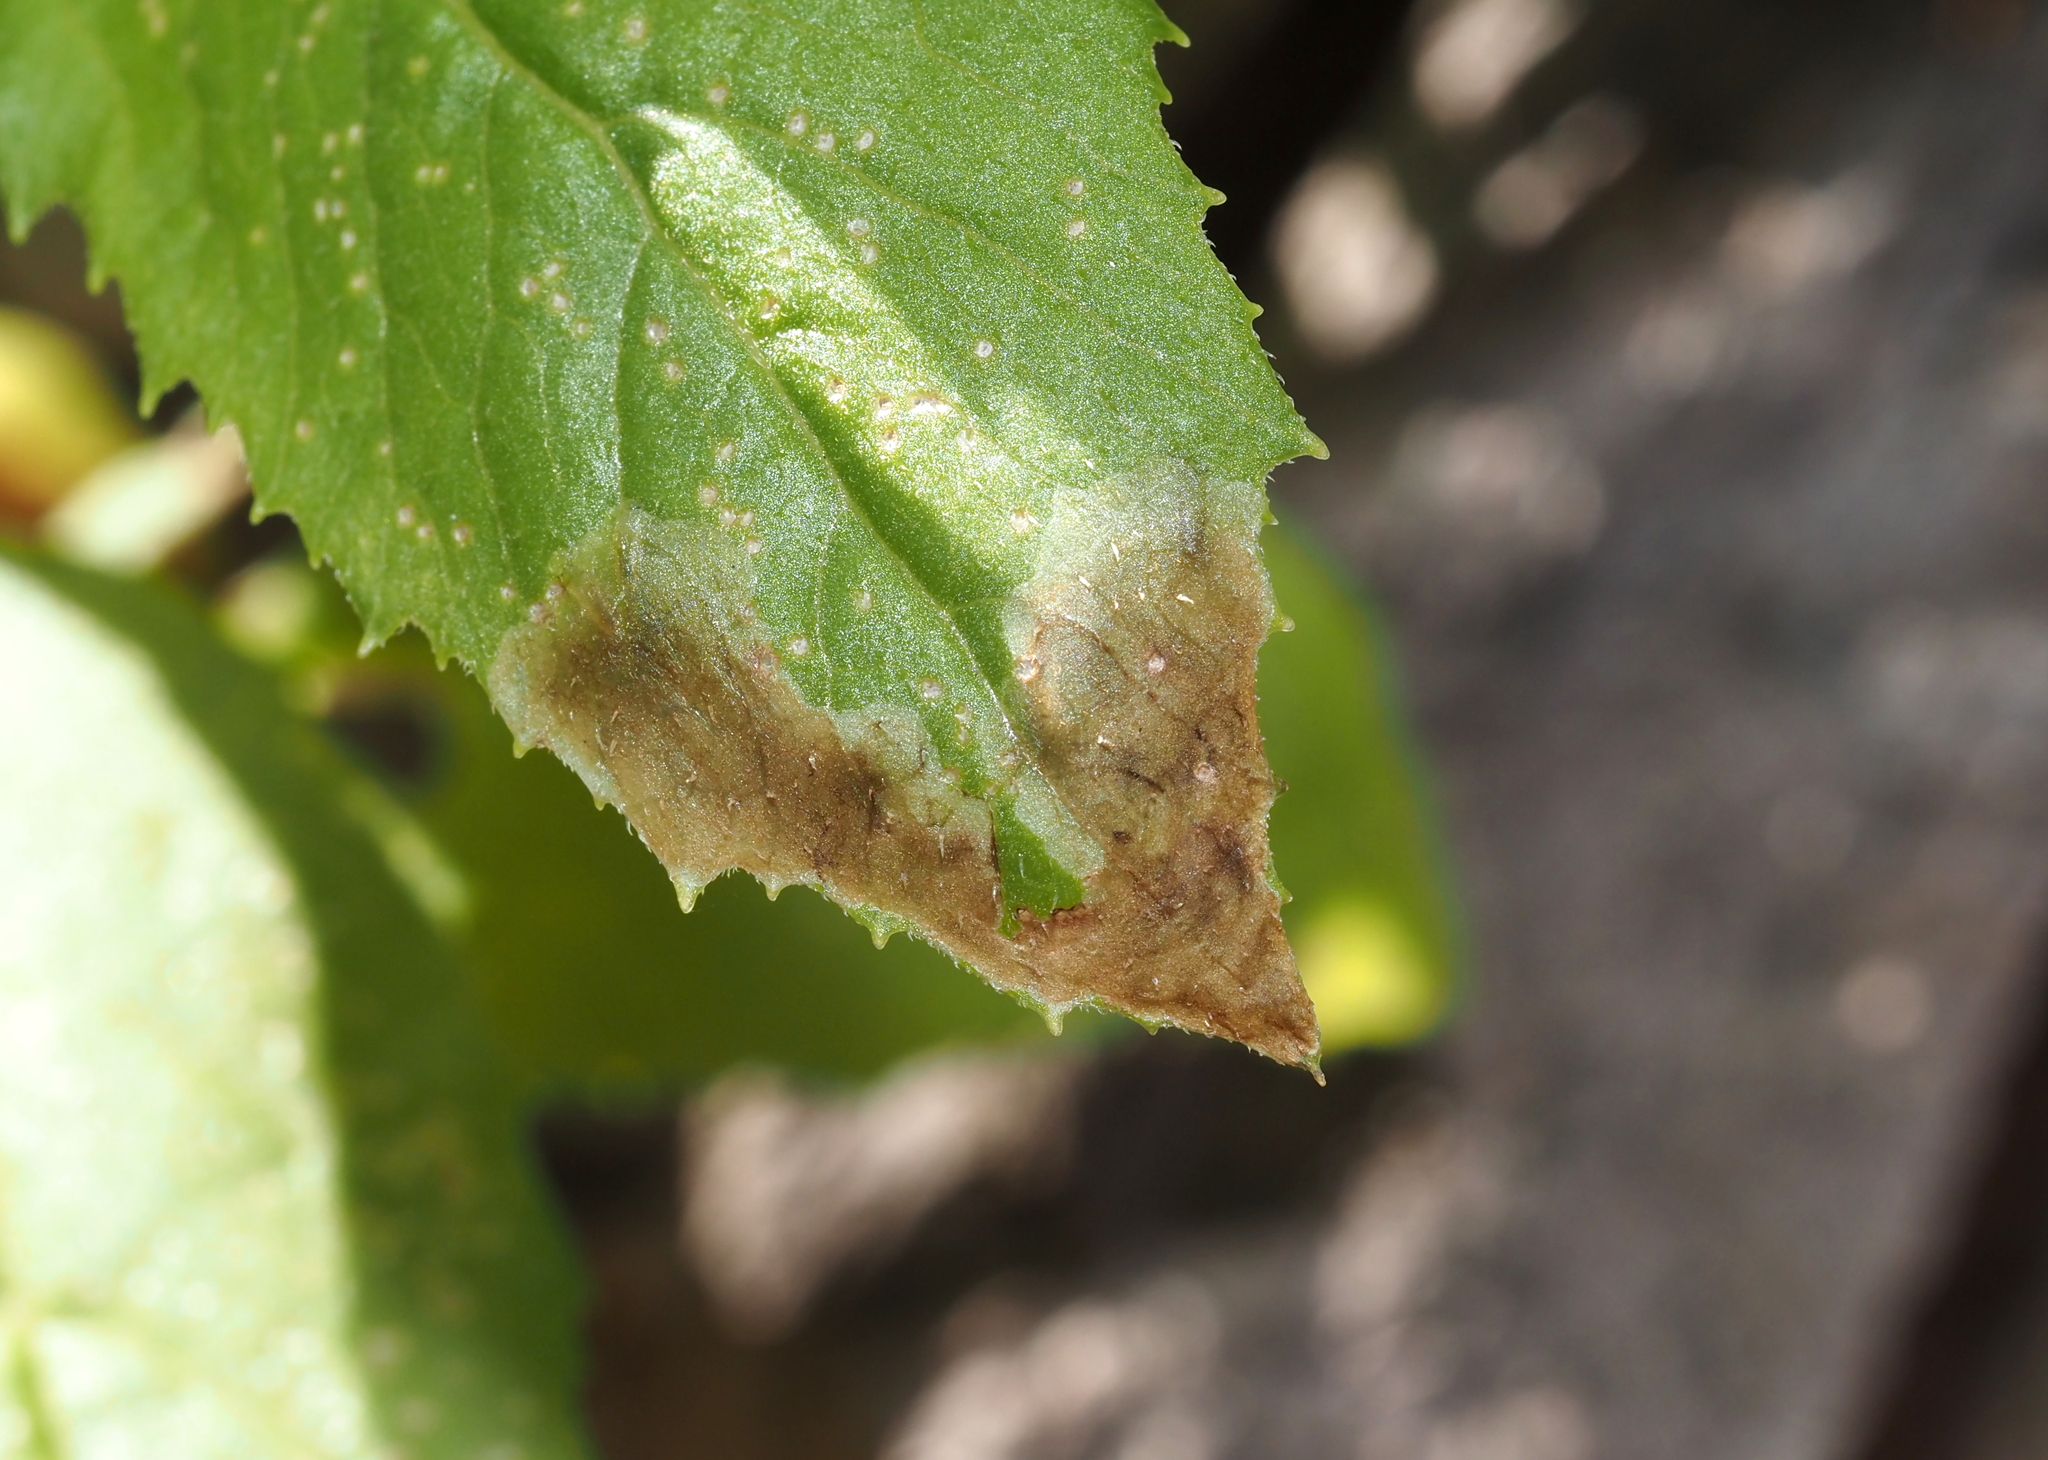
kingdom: Animalia
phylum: Arthropoda
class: Insecta
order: Diptera
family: Agromyzidae
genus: Nemorimyza
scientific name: Nemorimyza maculosa
